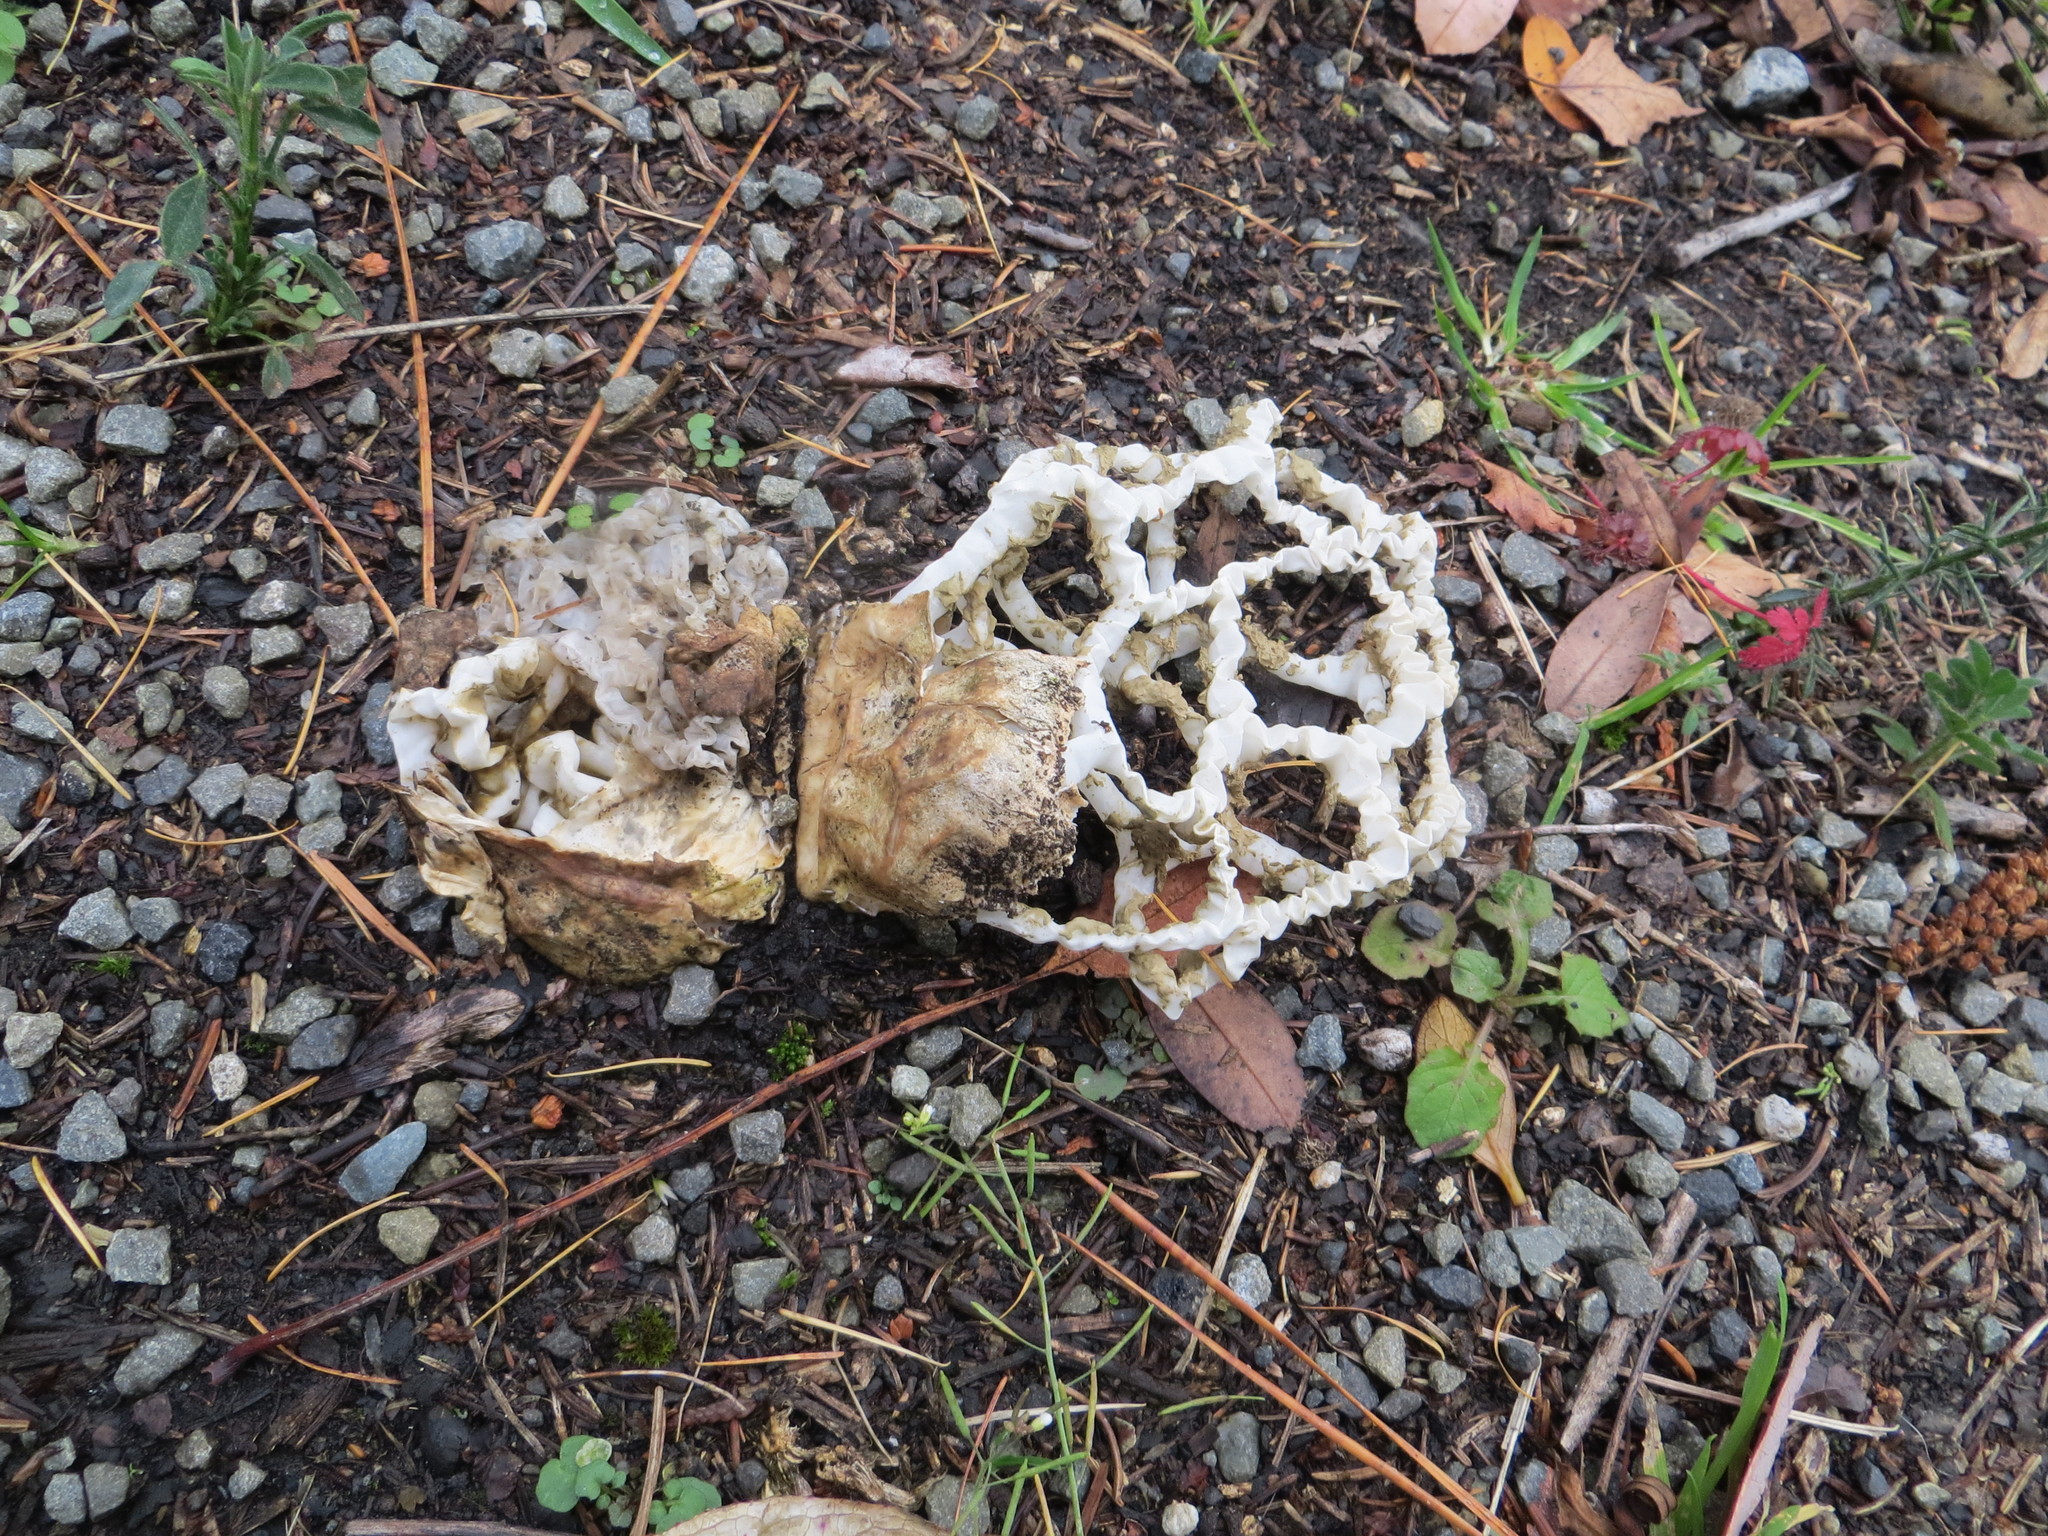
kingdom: Fungi
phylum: Basidiomycota
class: Agaricomycetes
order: Phallales
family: Phallaceae
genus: Ileodictyon
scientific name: Ileodictyon cibarium
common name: Basket fungus
